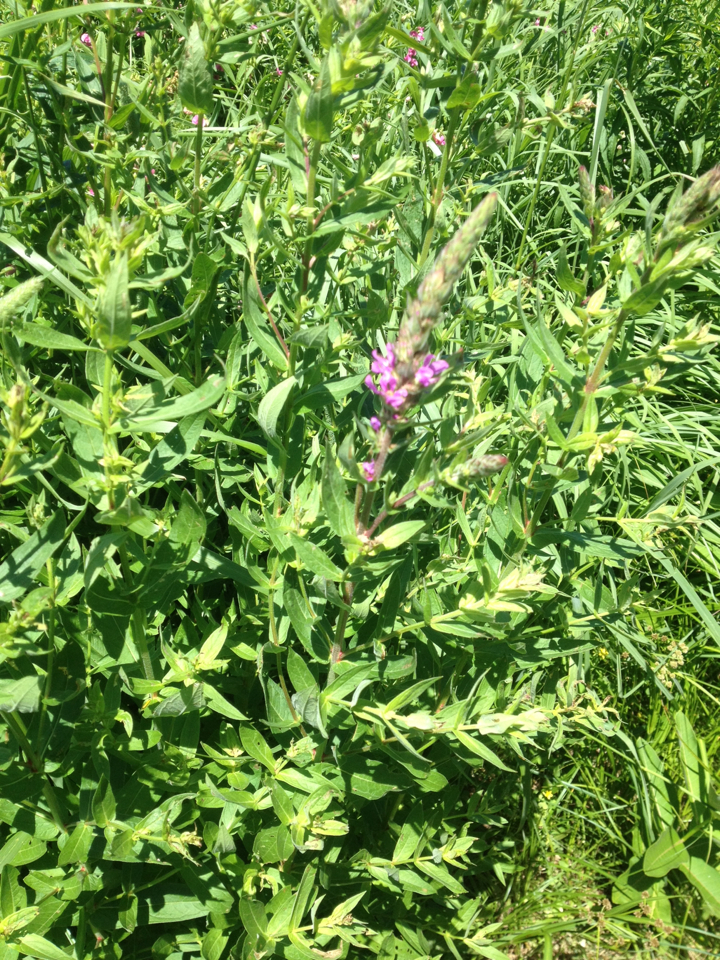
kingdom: Plantae
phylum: Tracheophyta
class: Magnoliopsida
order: Myrtales
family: Lythraceae
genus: Lythrum
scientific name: Lythrum salicaria
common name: Purple loosestrife
